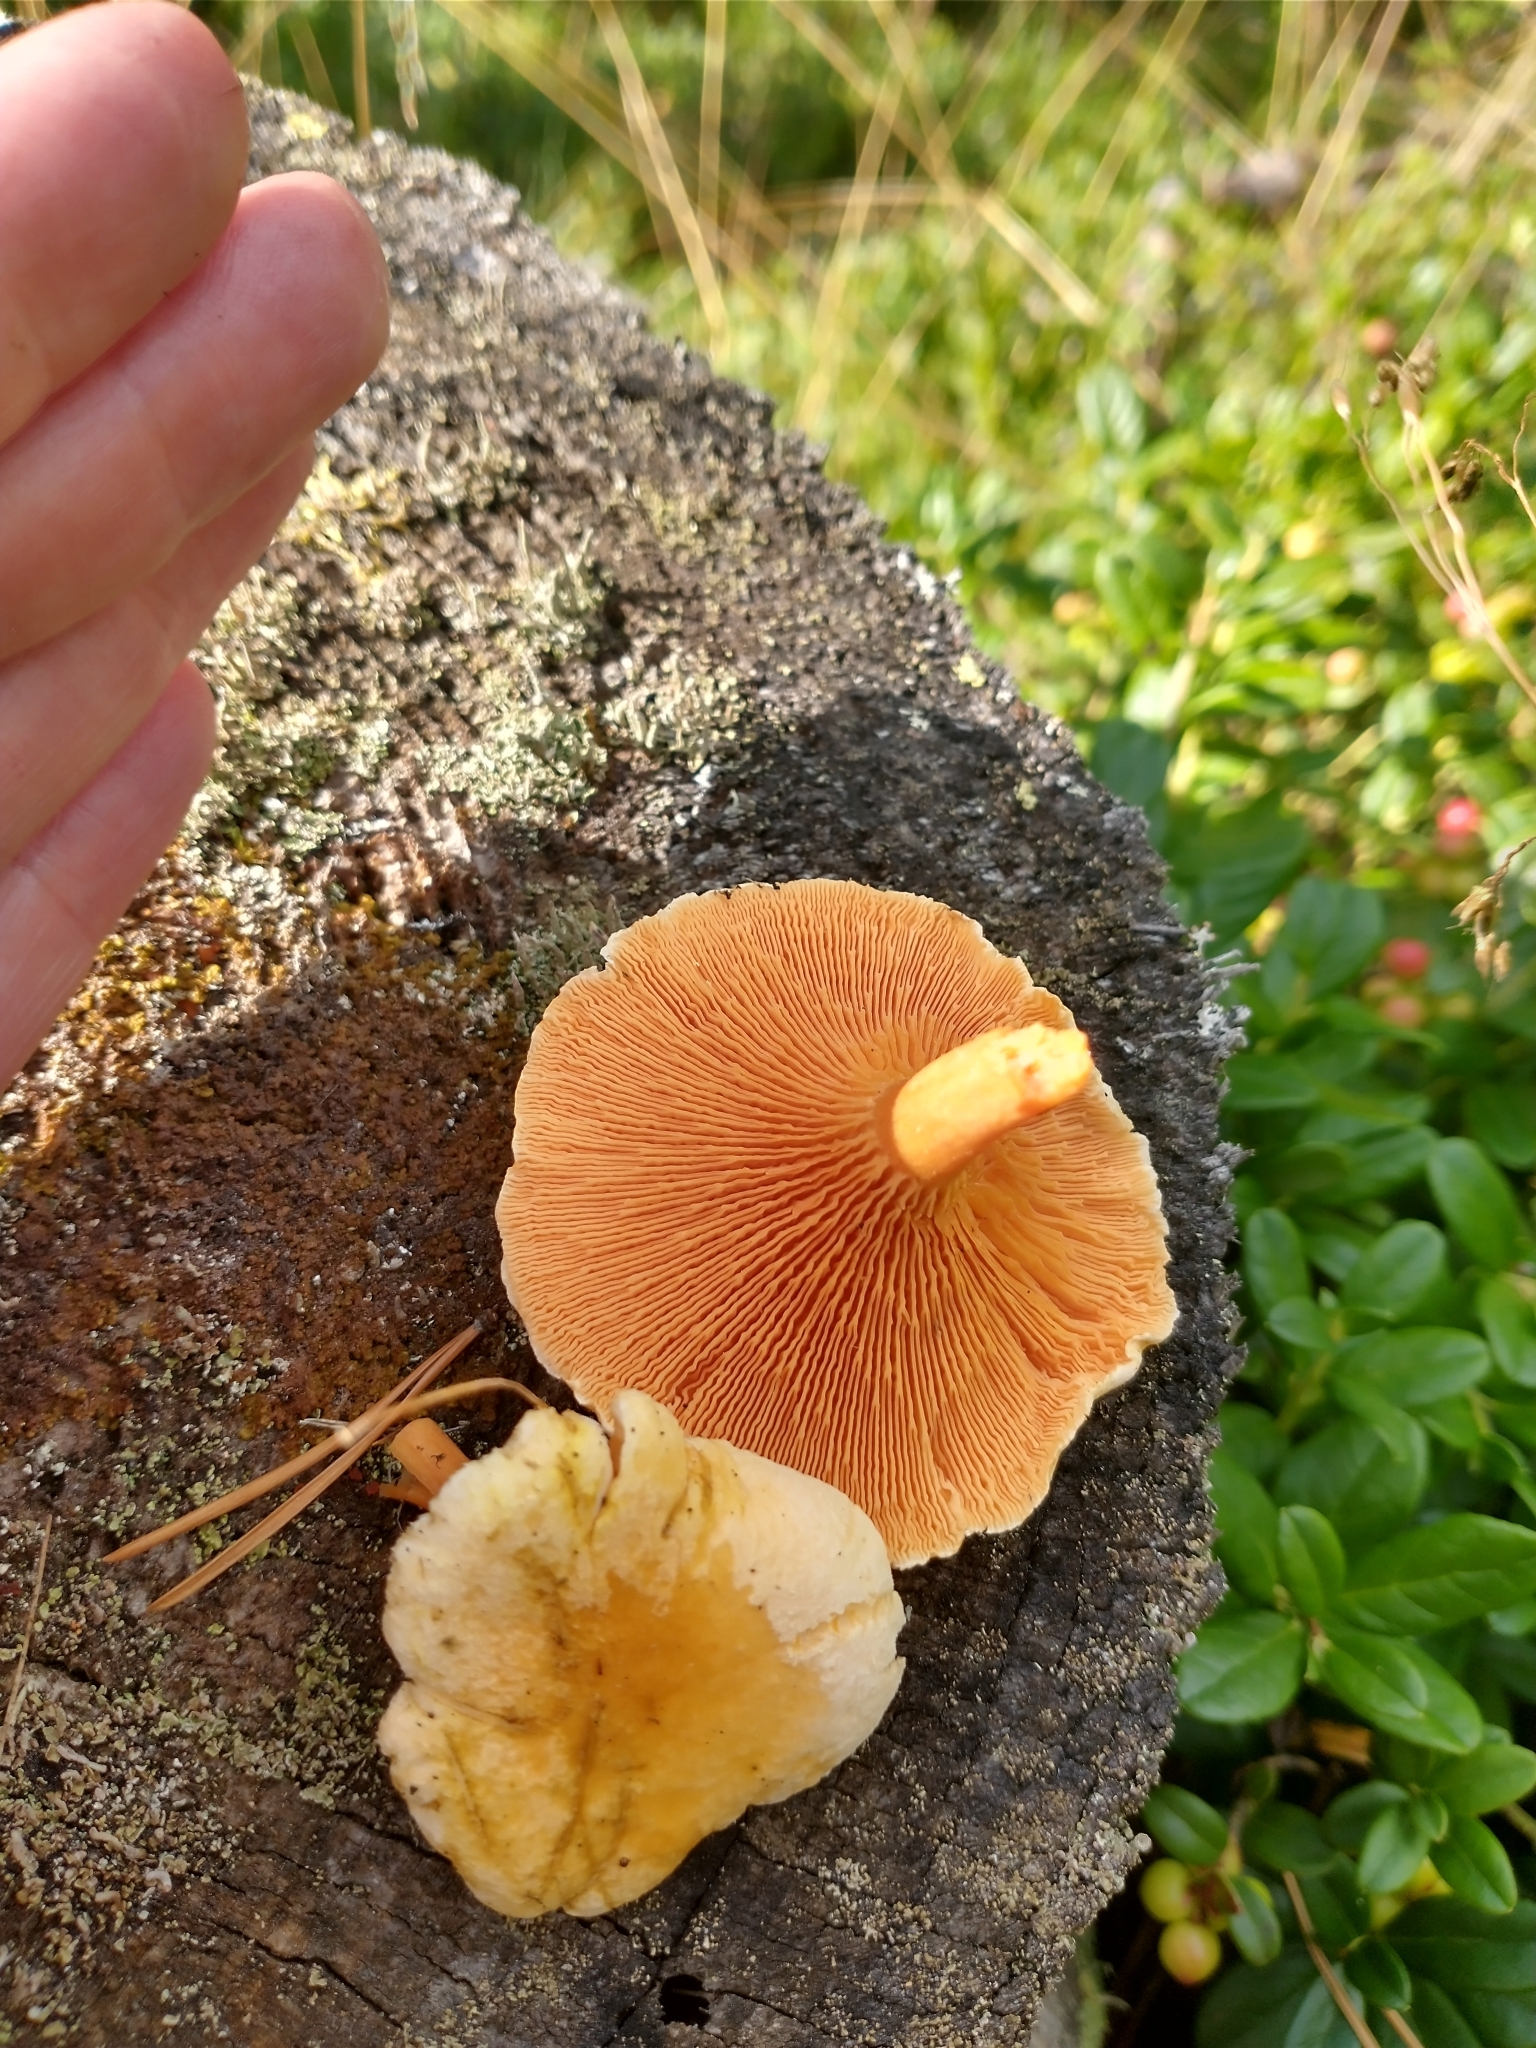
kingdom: Fungi
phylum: Basidiomycota
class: Agaricomycetes
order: Boletales
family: Hygrophoropsidaceae
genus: Hygrophoropsis
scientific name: Hygrophoropsis aurantiaca
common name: False chanterelle
